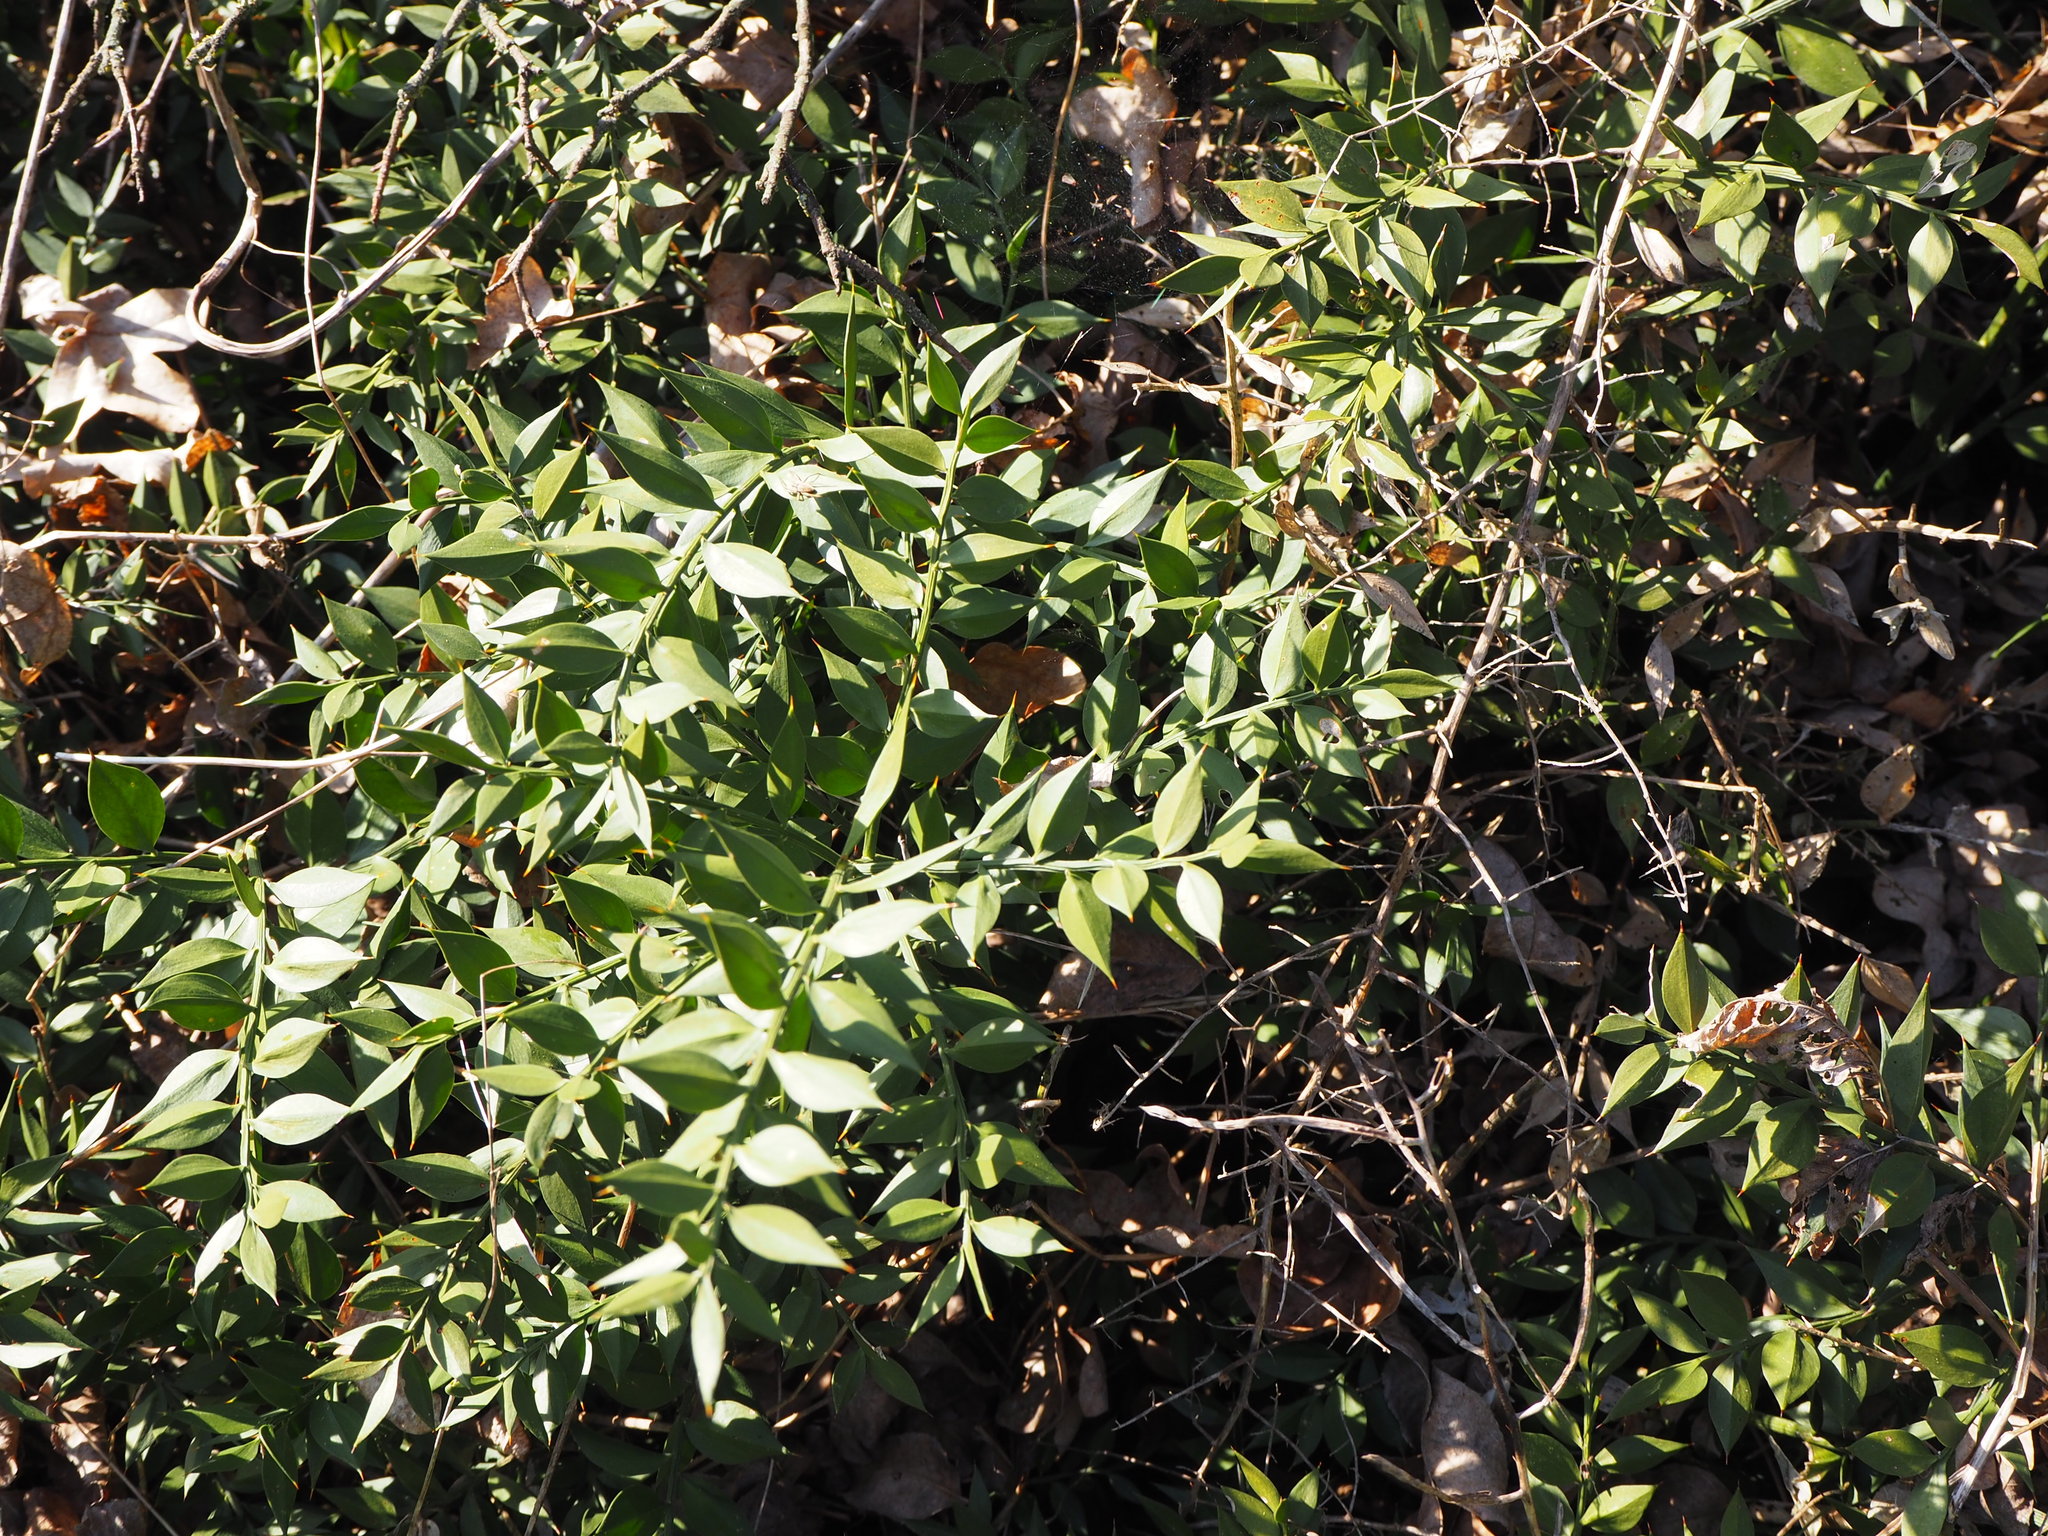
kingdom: Plantae
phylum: Tracheophyta
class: Liliopsida
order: Asparagales
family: Asparagaceae
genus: Ruscus
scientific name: Ruscus aculeatus
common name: Butcher's-broom
